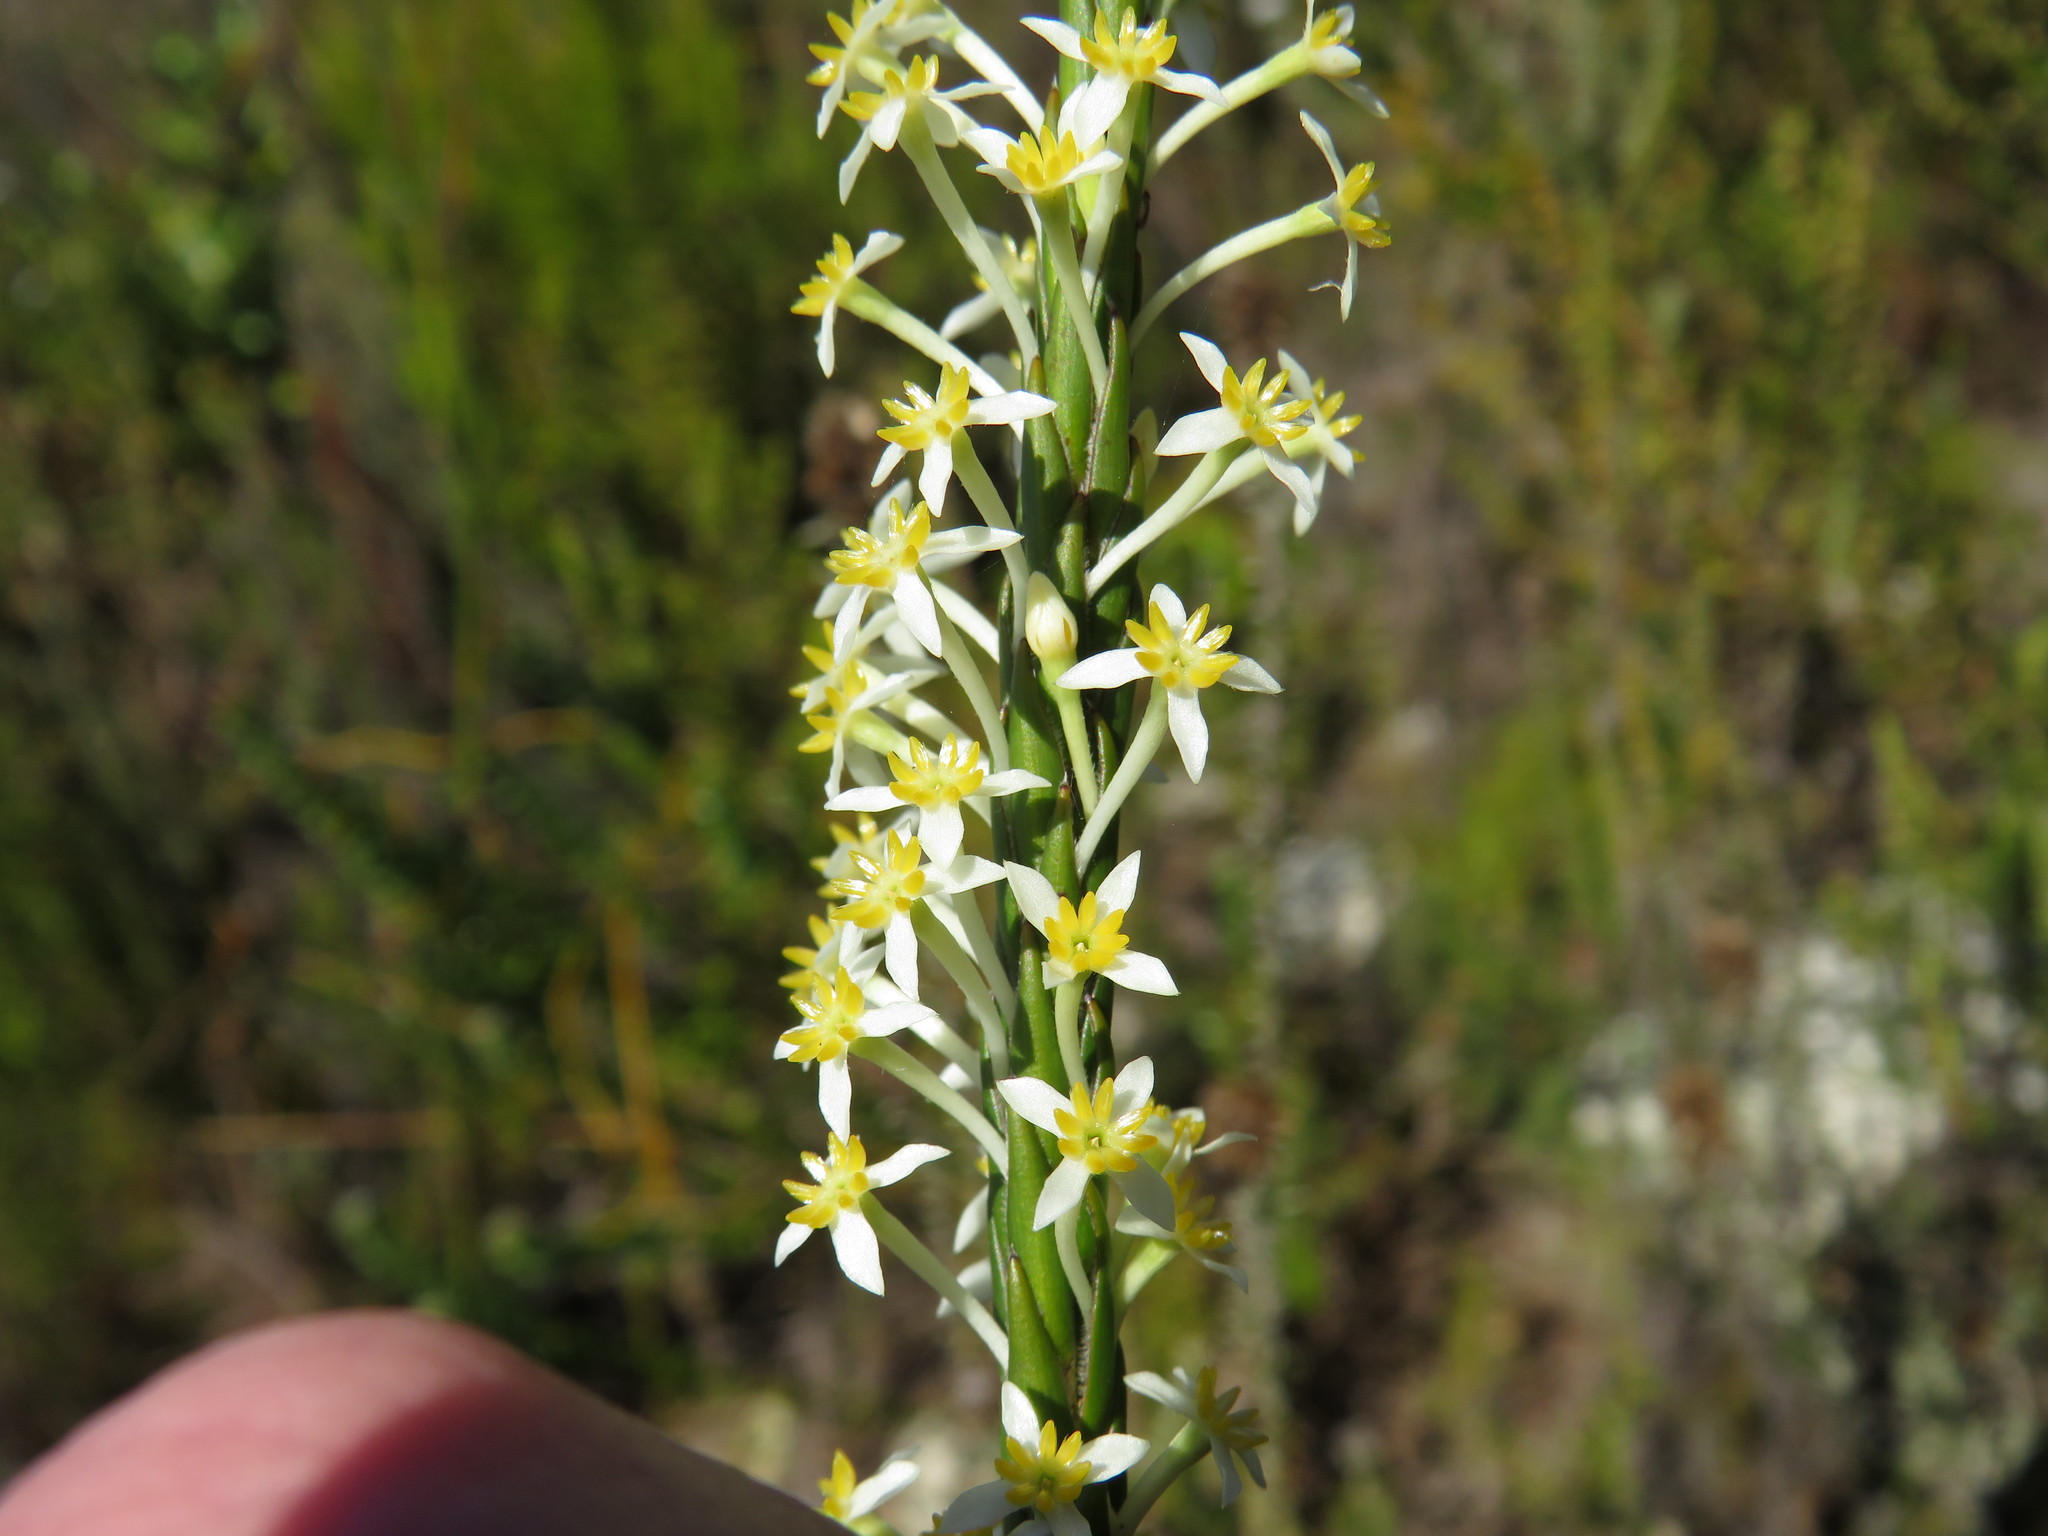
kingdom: Plantae
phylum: Tracheophyta
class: Magnoliopsida
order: Malvales
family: Thymelaeaceae
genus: Struthiola
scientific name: Struthiola ciliata
